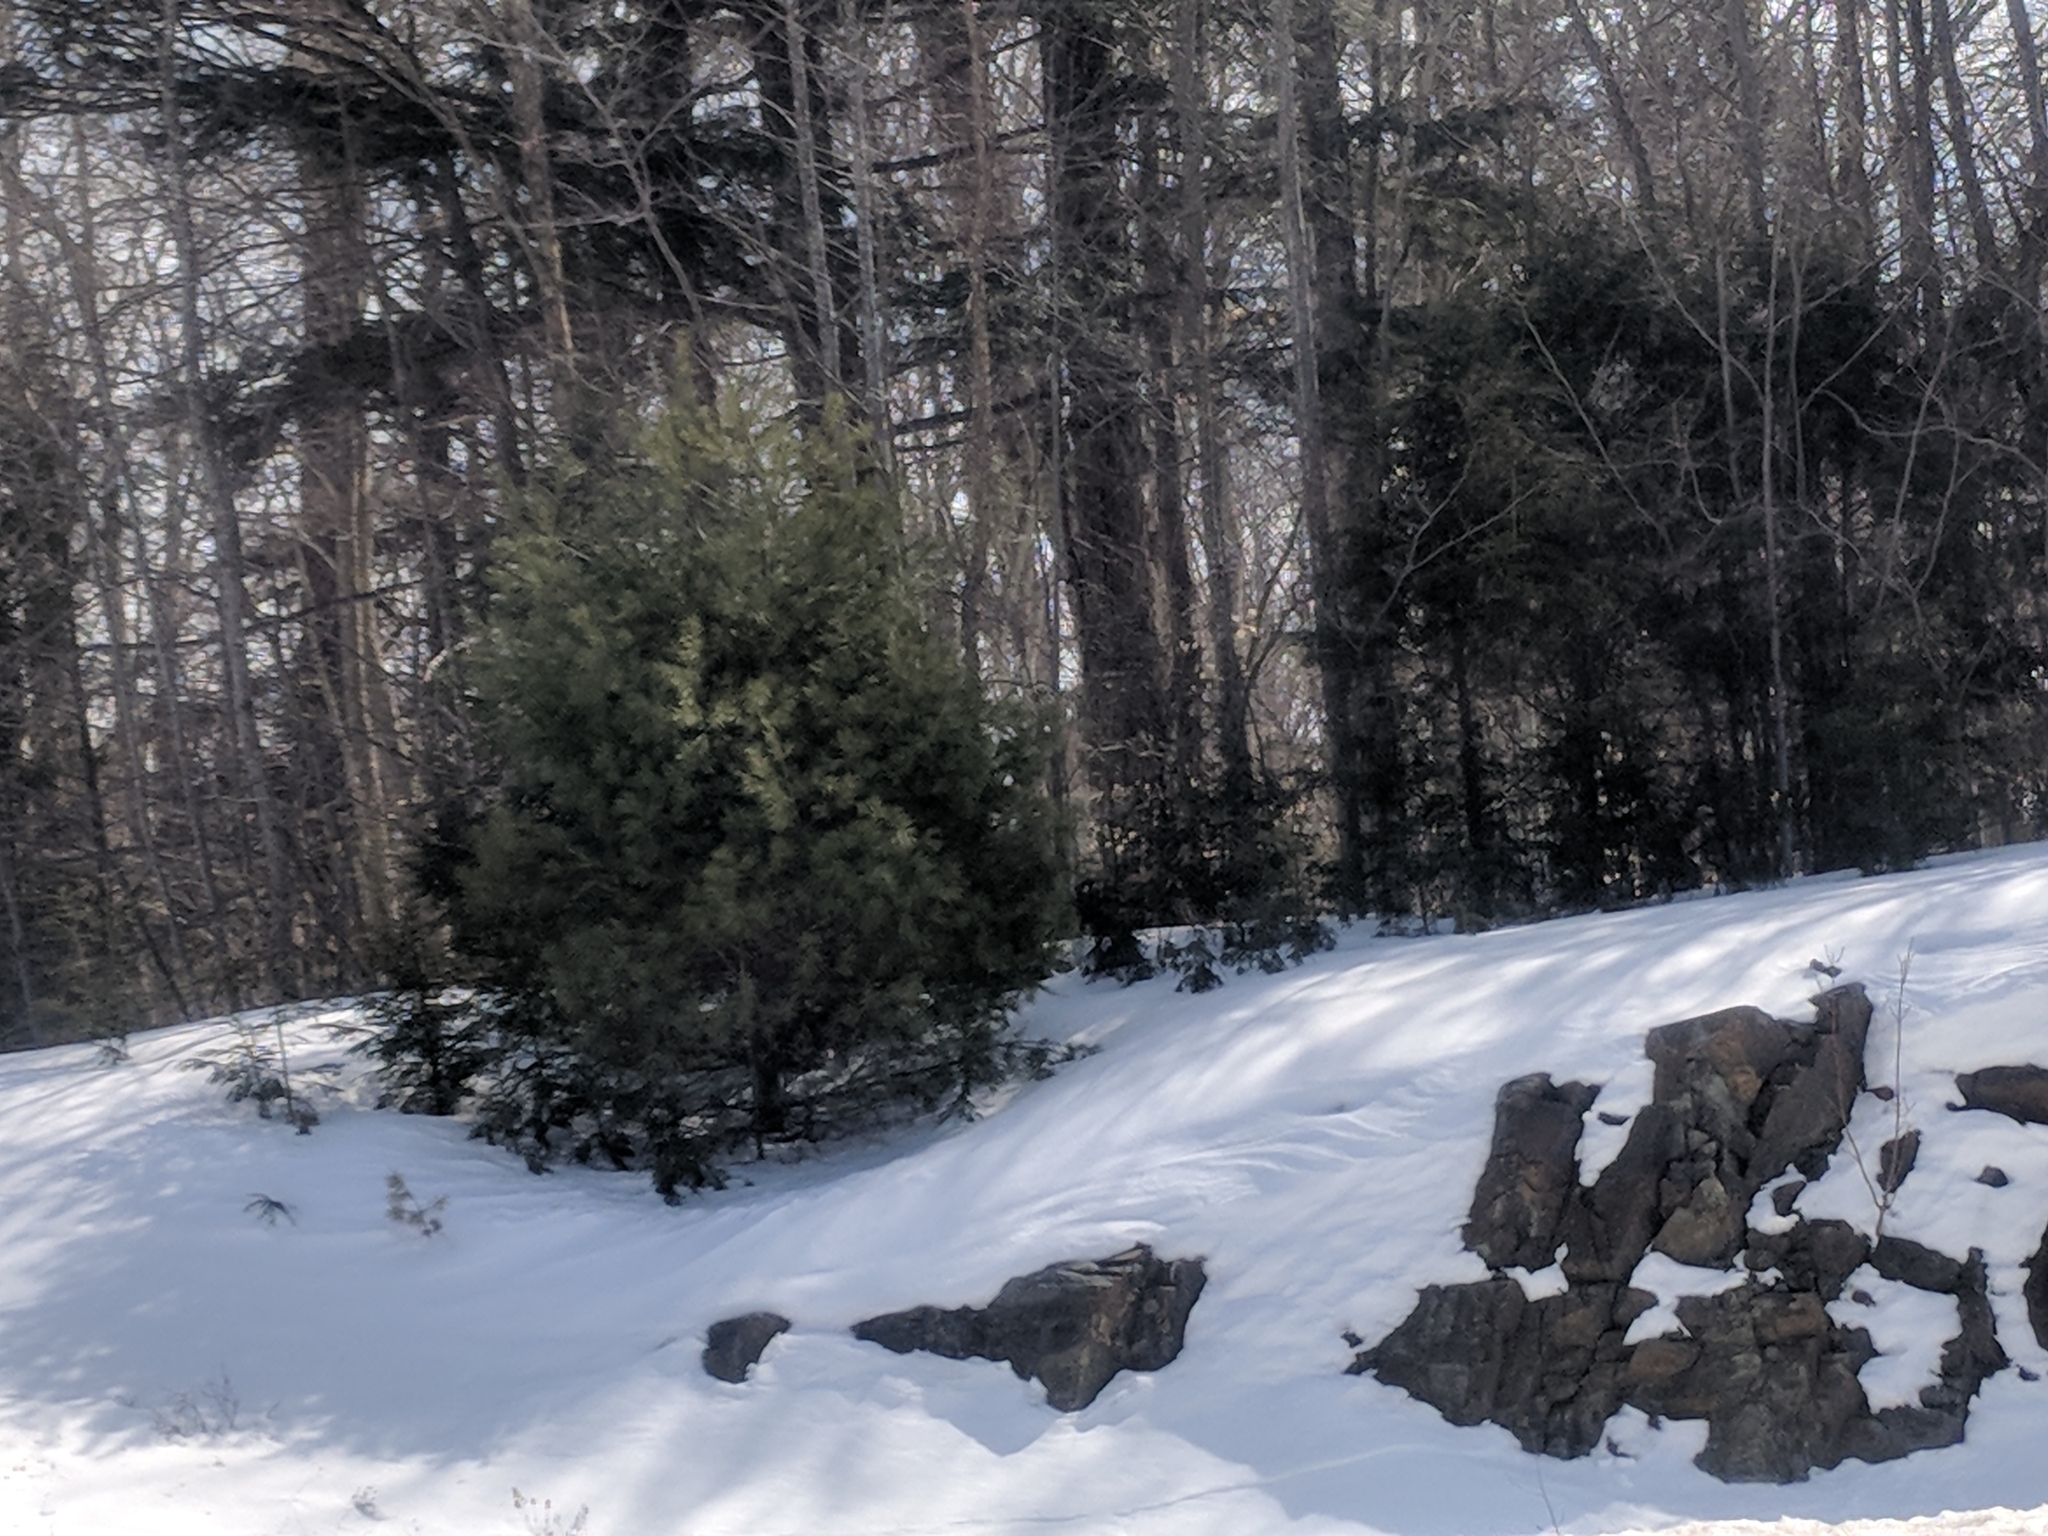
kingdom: Plantae
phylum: Tracheophyta
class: Pinopsida
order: Pinales
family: Pinaceae
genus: Pinus
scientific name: Pinus strobus
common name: Weymouth pine
